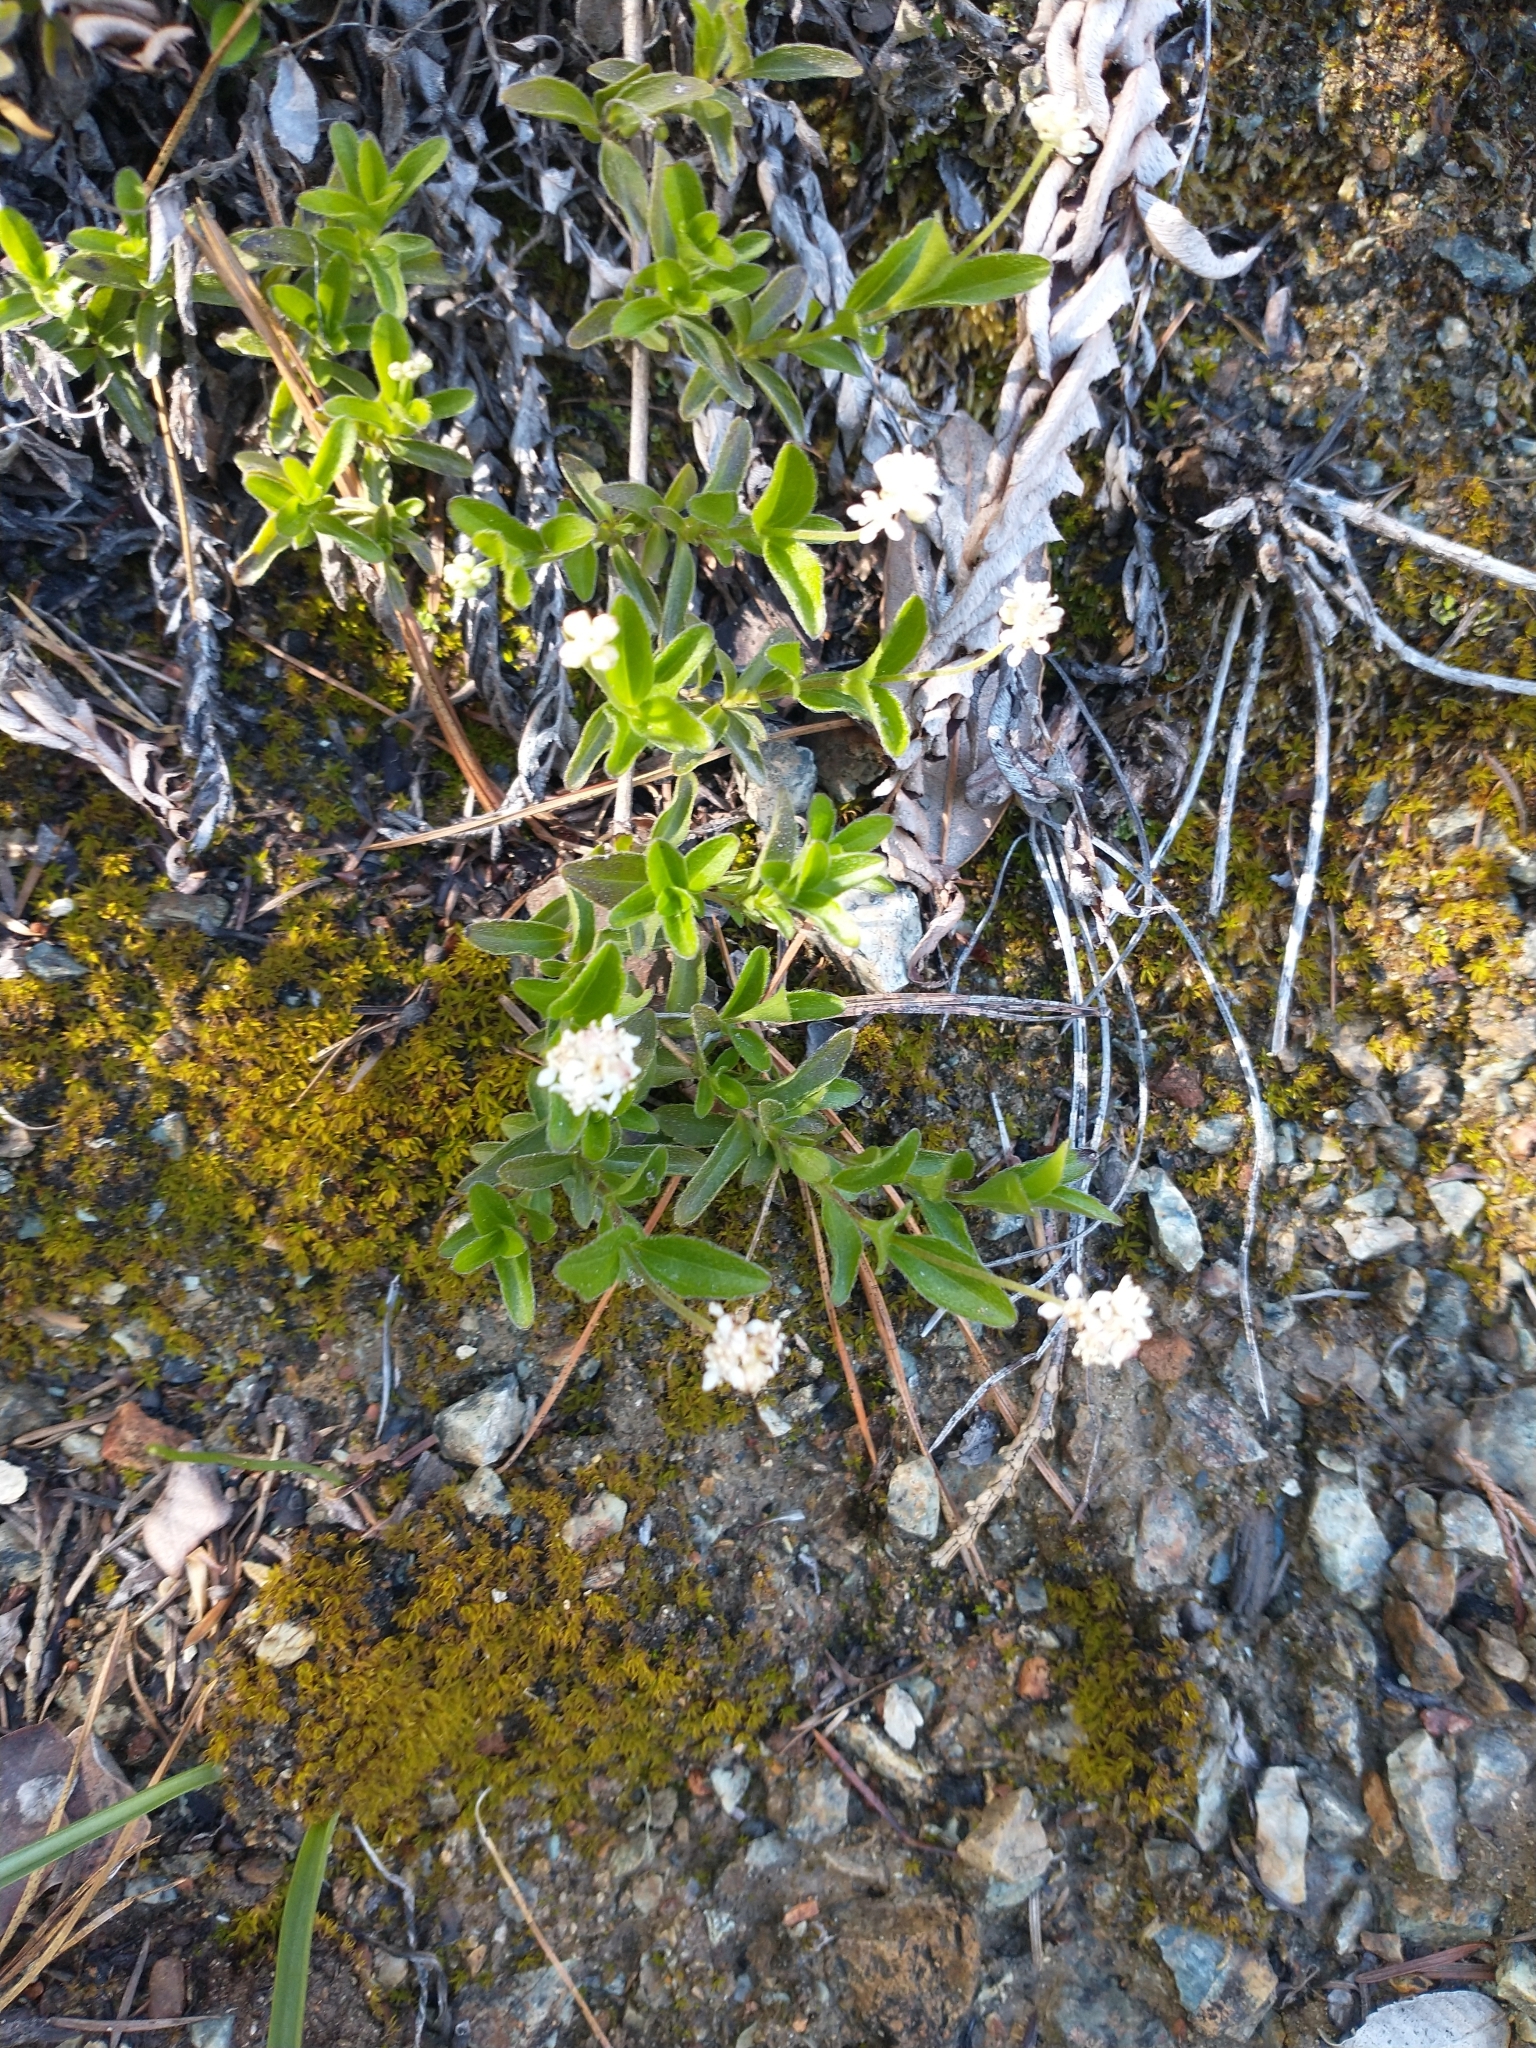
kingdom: Plantae
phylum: Tracheophyta
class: Magnoliopsida
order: Cornales
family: Hydrangeaceae
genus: Whipplea
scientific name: Whipplea modesta
